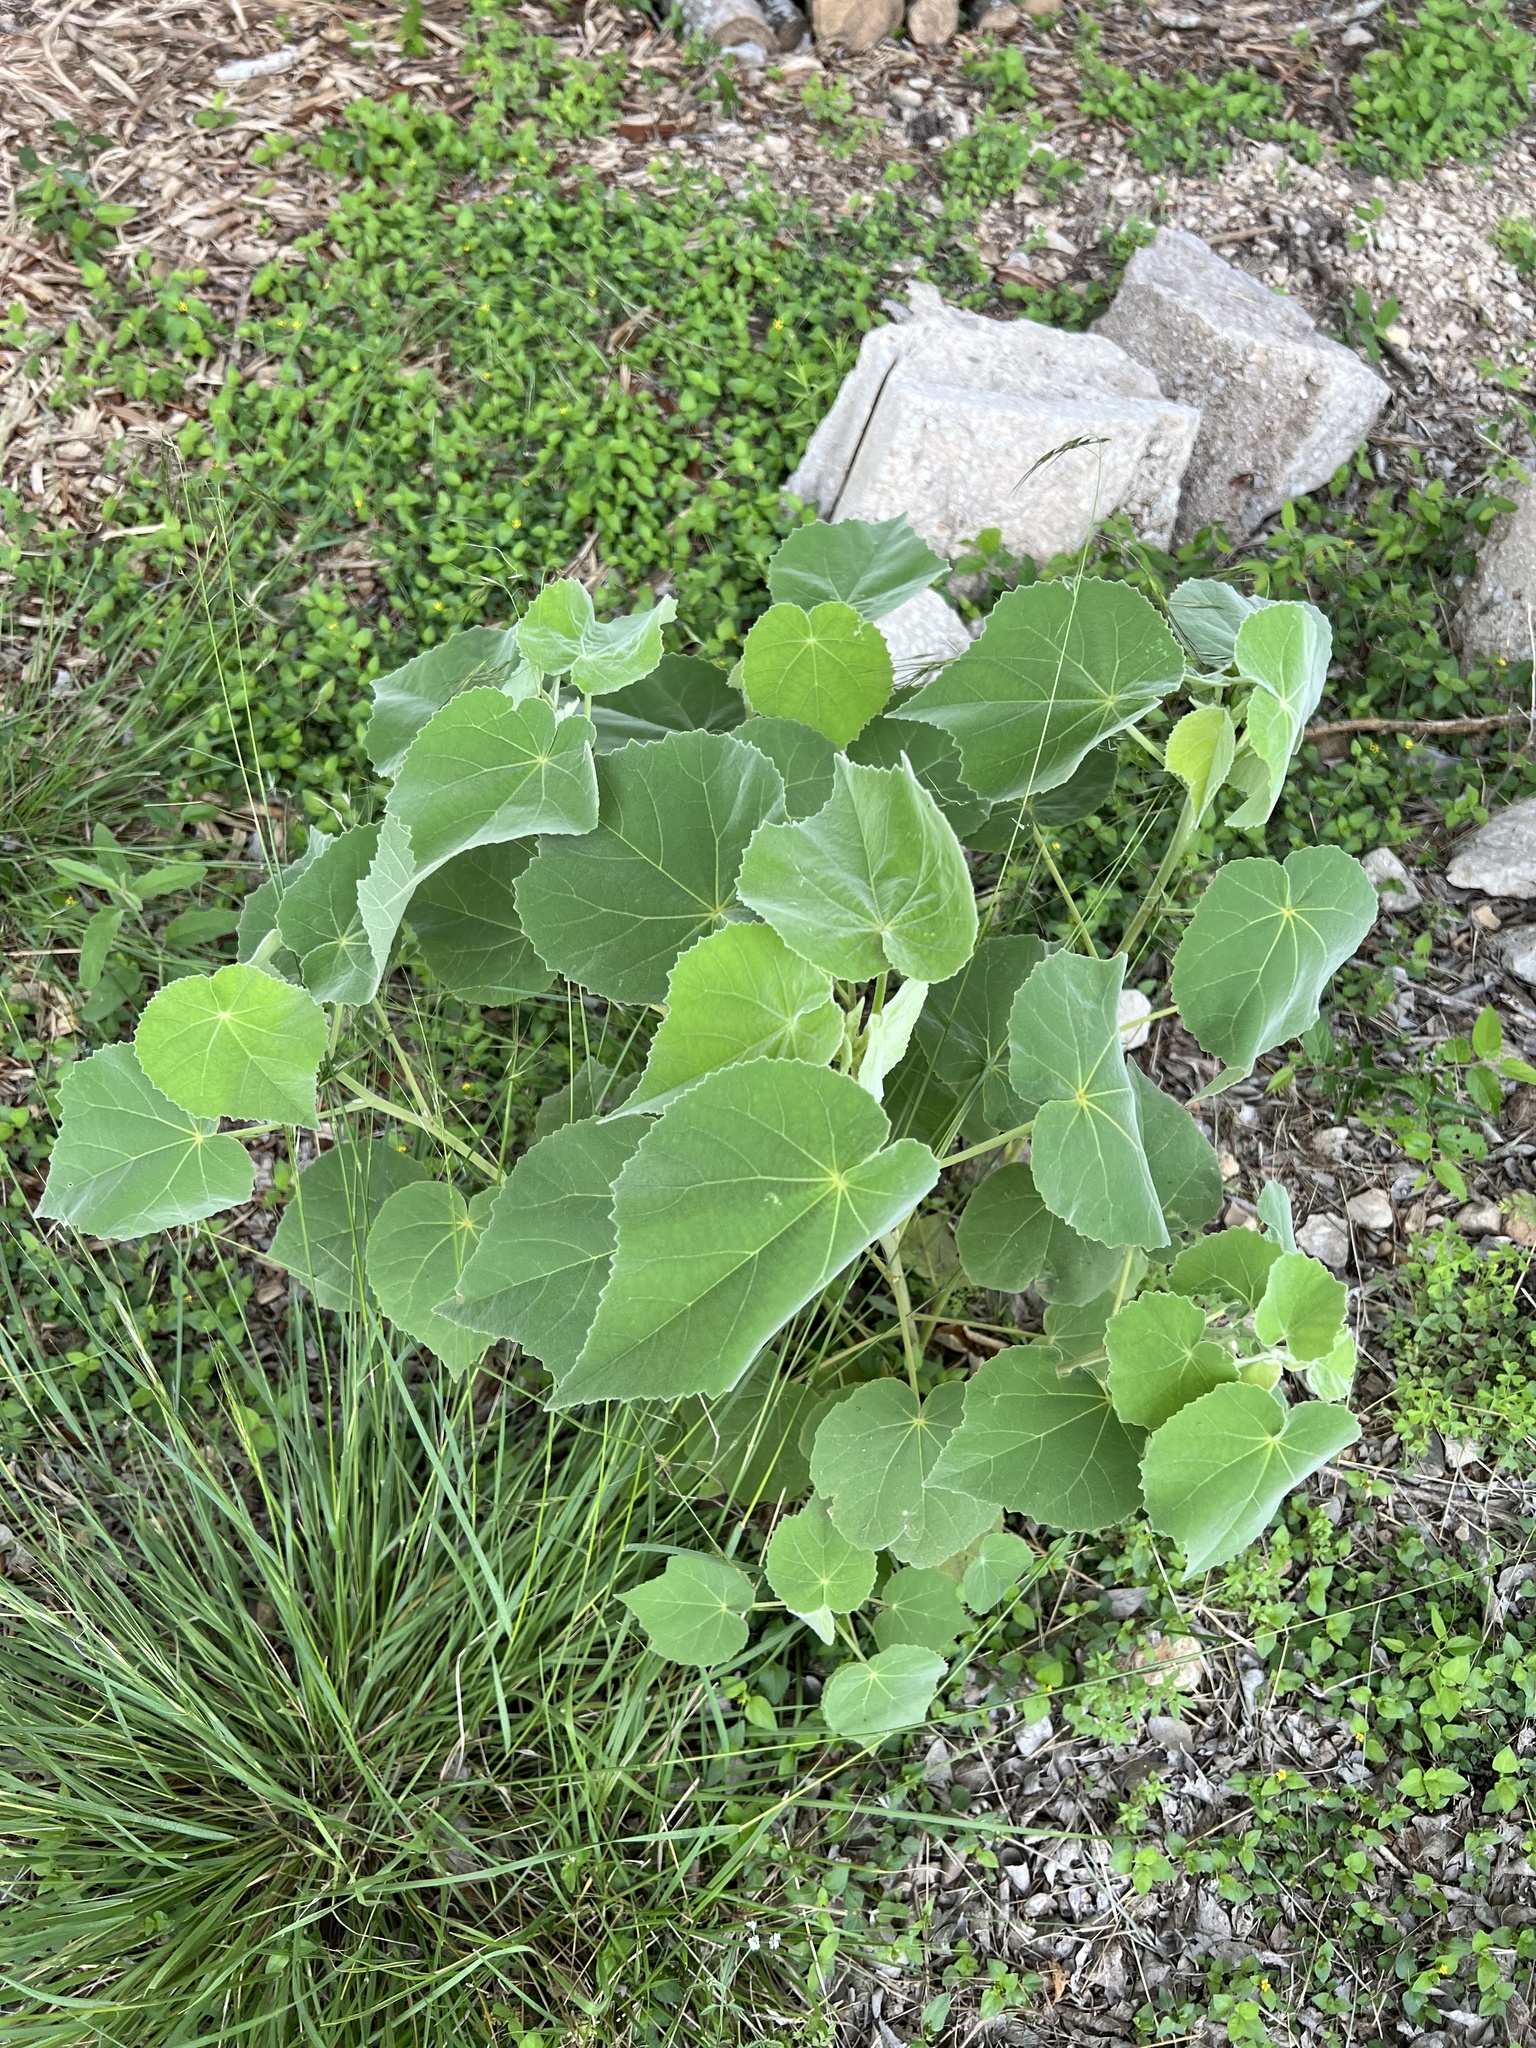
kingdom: Plantae
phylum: Tracheophyta
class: Magnoliopsida
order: Malvales
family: Malvaceae
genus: Allowissadula
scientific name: Allowissadula holosericea
